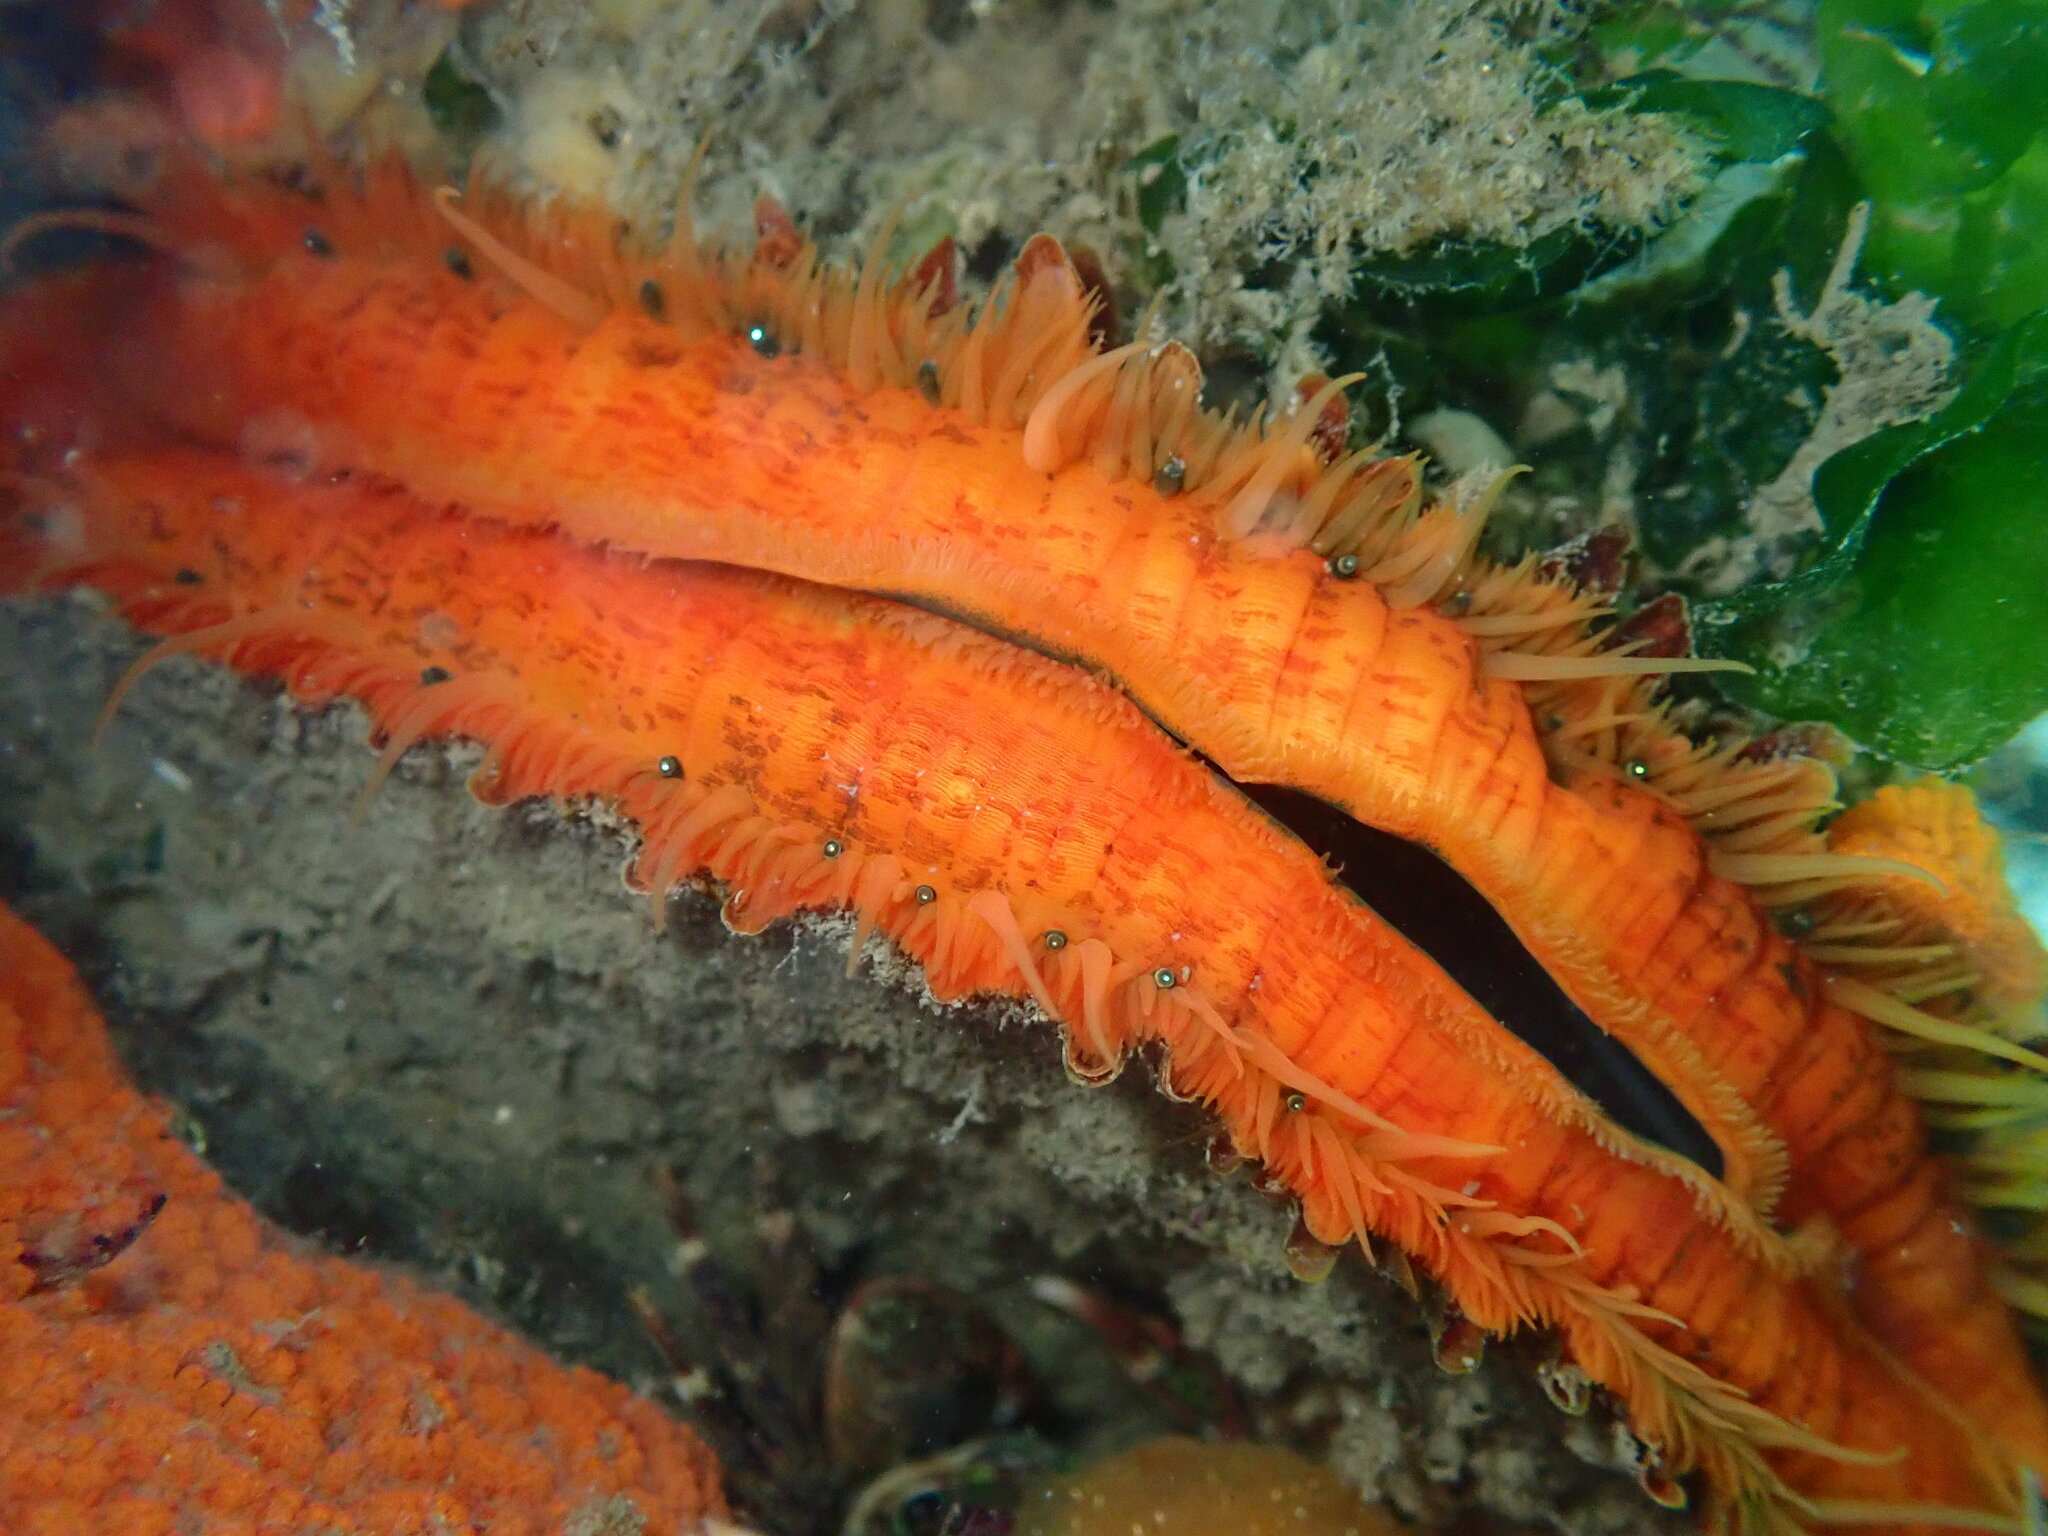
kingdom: Animalia
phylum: Mollusca
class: Bivalvia
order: Pectinida
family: Pectinidae
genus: Crassadoma
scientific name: Crassadoma gigantea
